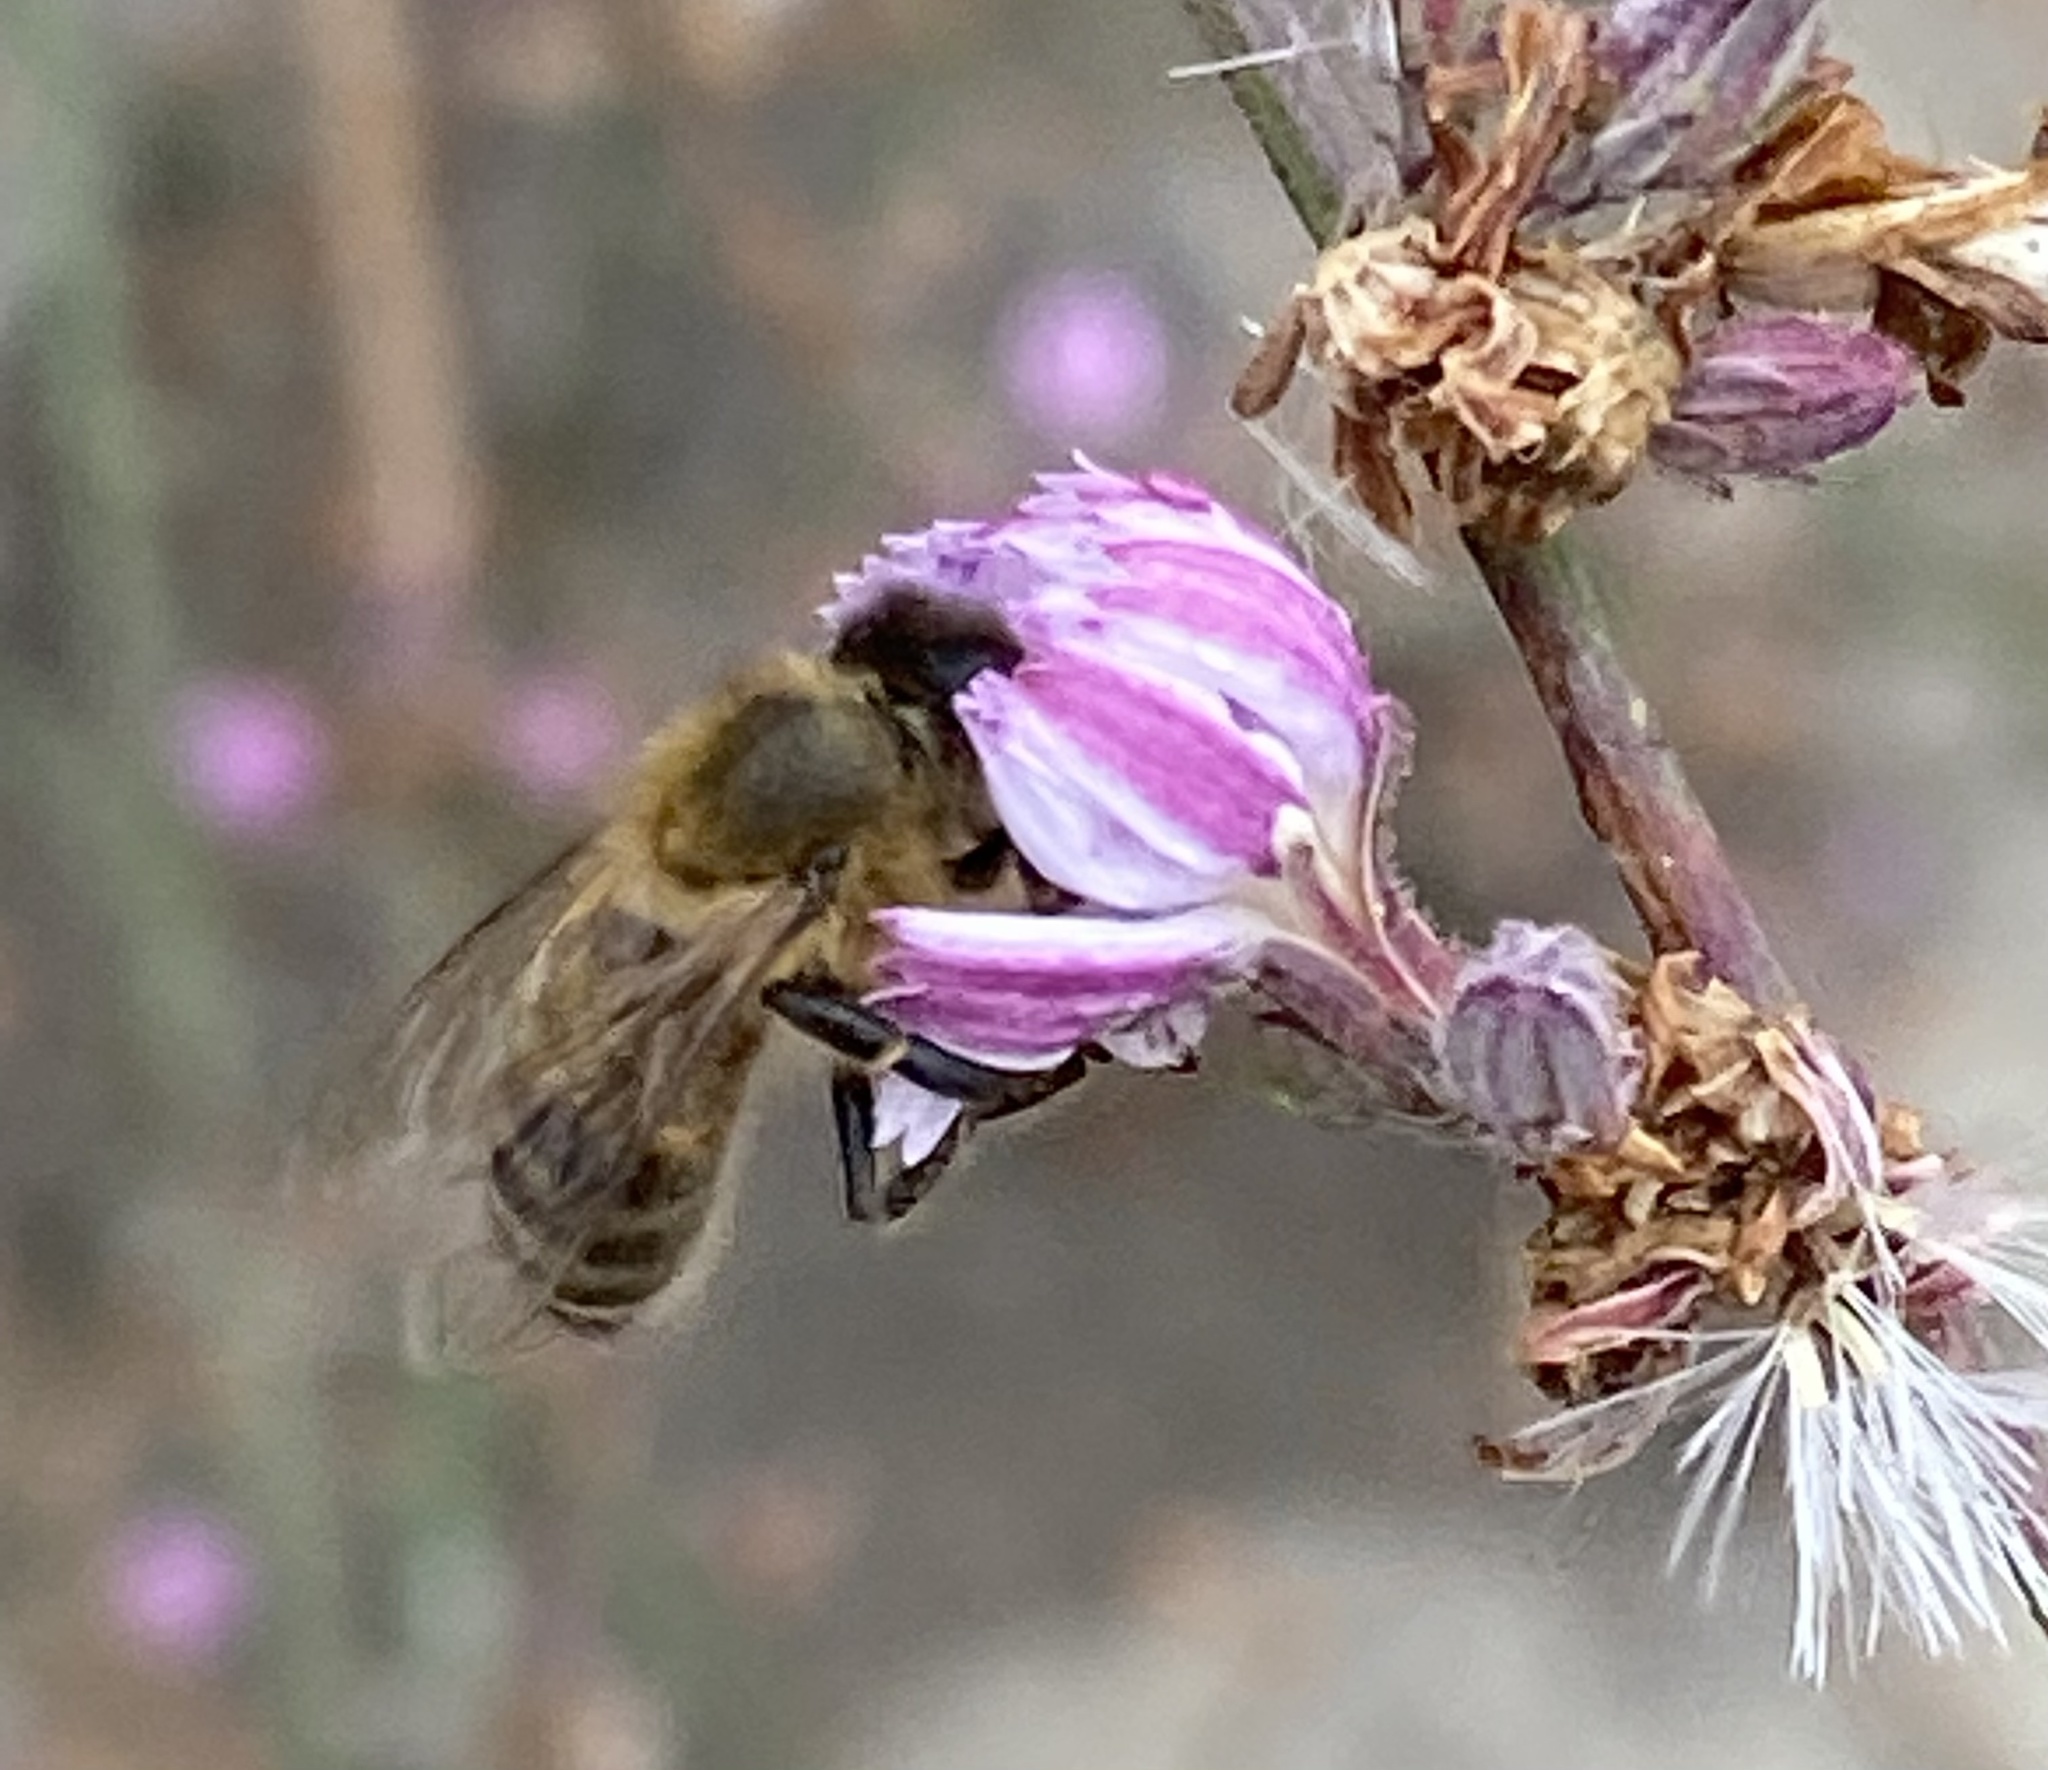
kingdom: Animalia
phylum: Arthropoda
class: Insecta
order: Hymenoptera
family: Apidae
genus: Apis
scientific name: Apis mellifera
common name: Honey bee
